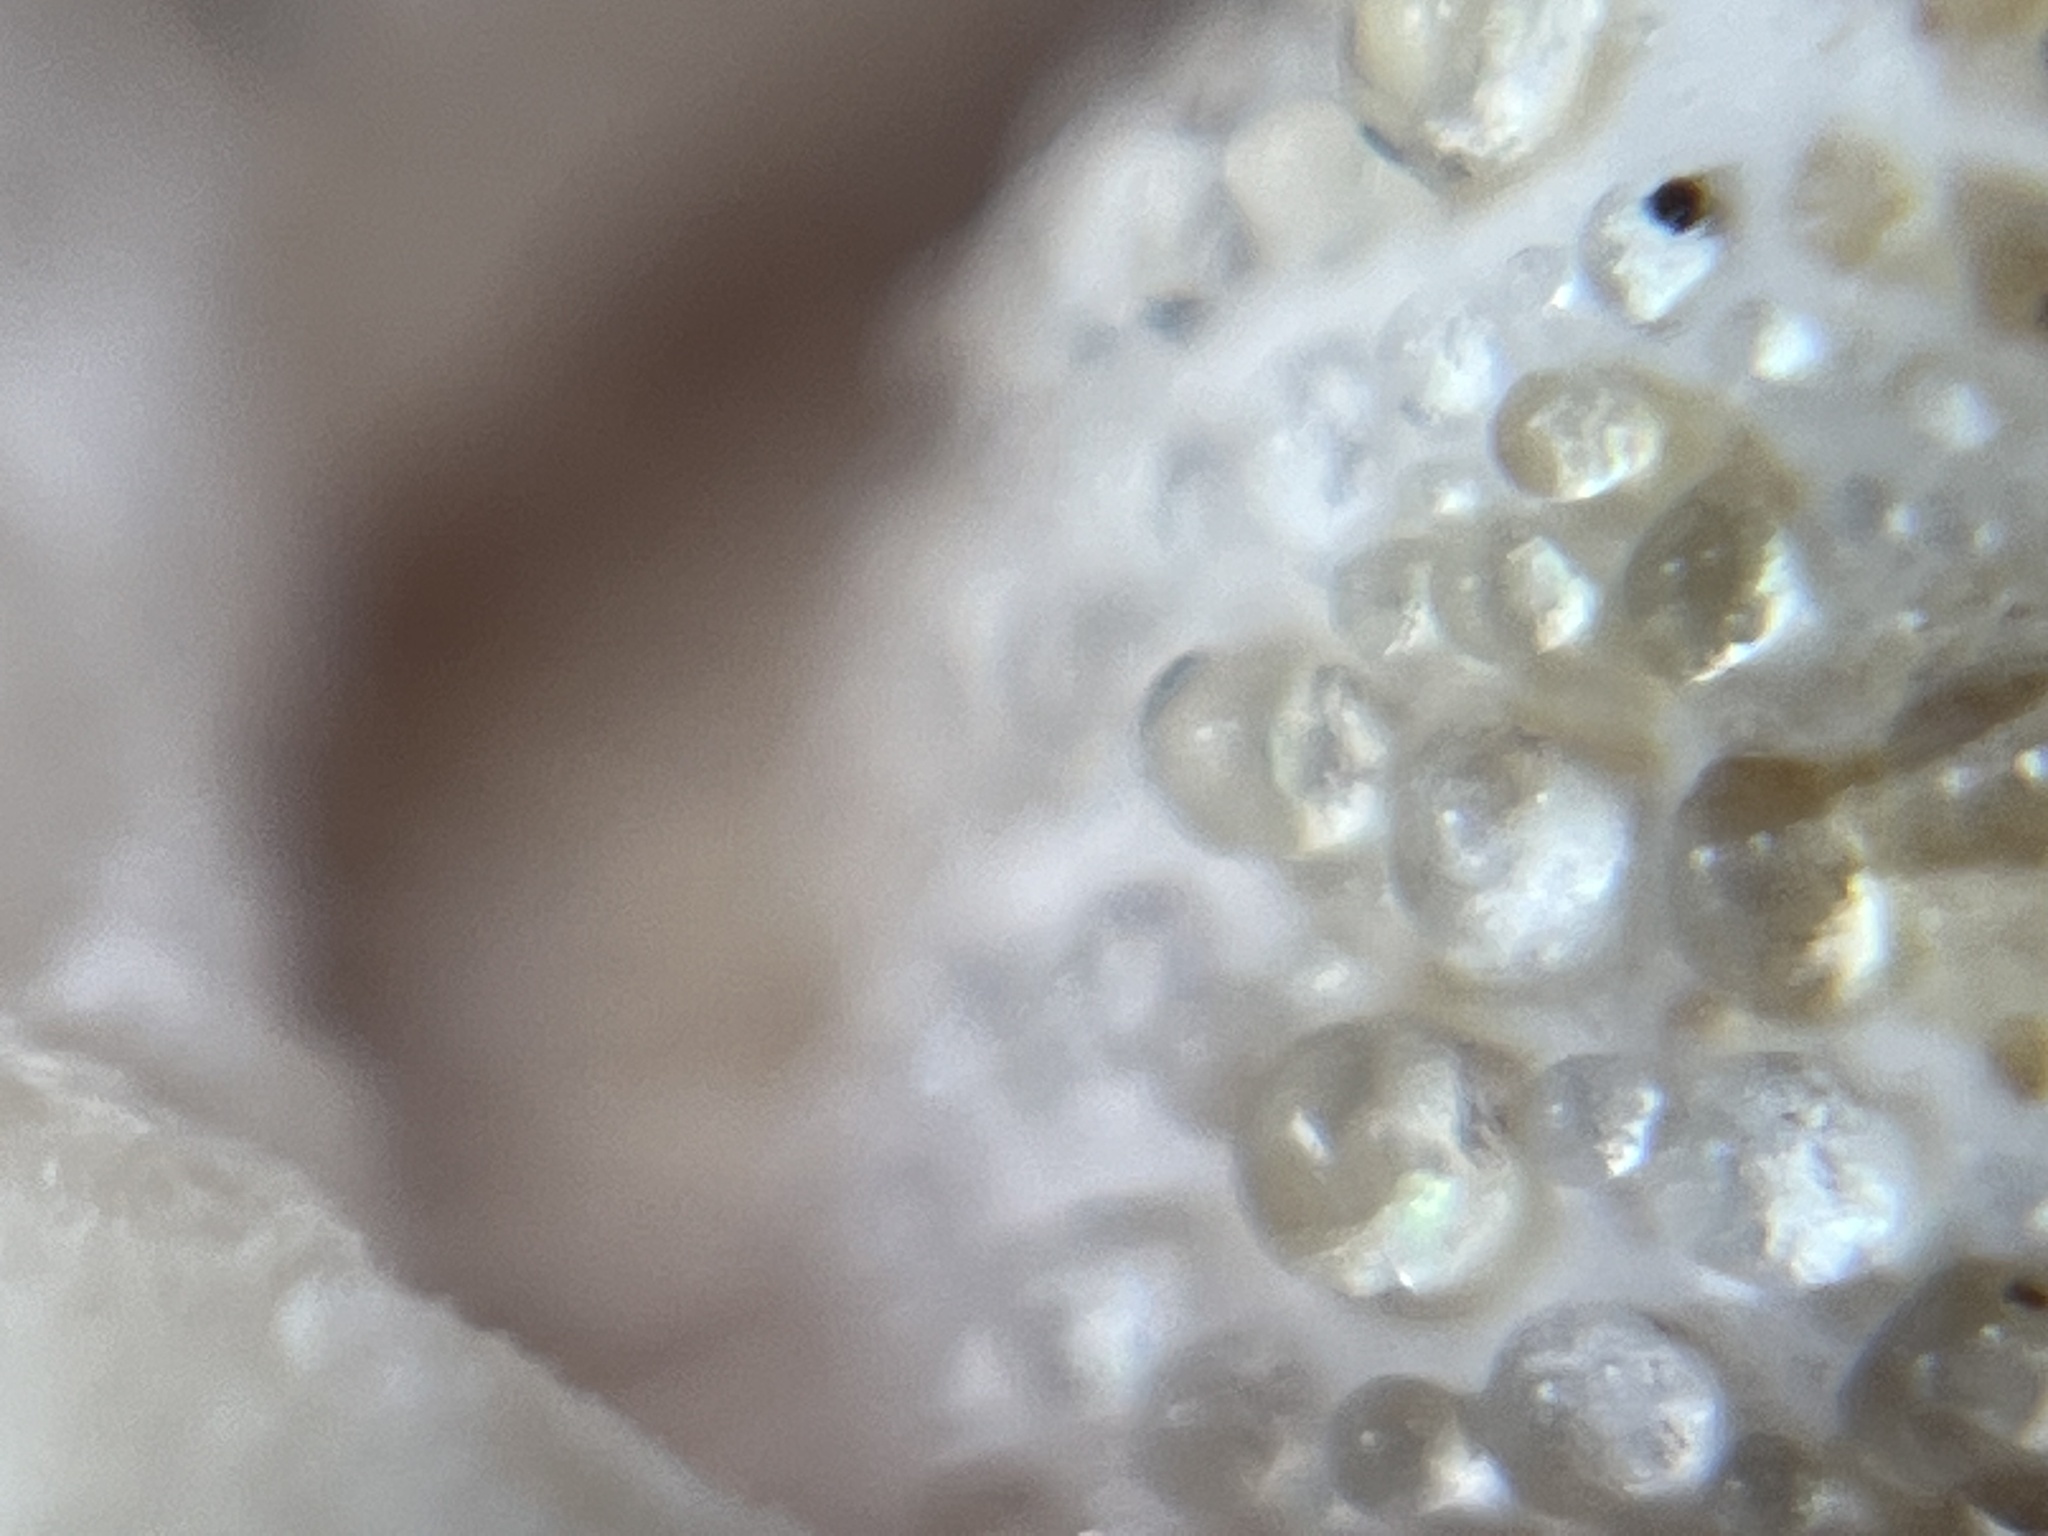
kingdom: Fungi
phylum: Basidiomycota
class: Agaricomycetes
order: Russulales
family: Russulaceae
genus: Lactarius
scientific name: Lactarius alnicola
